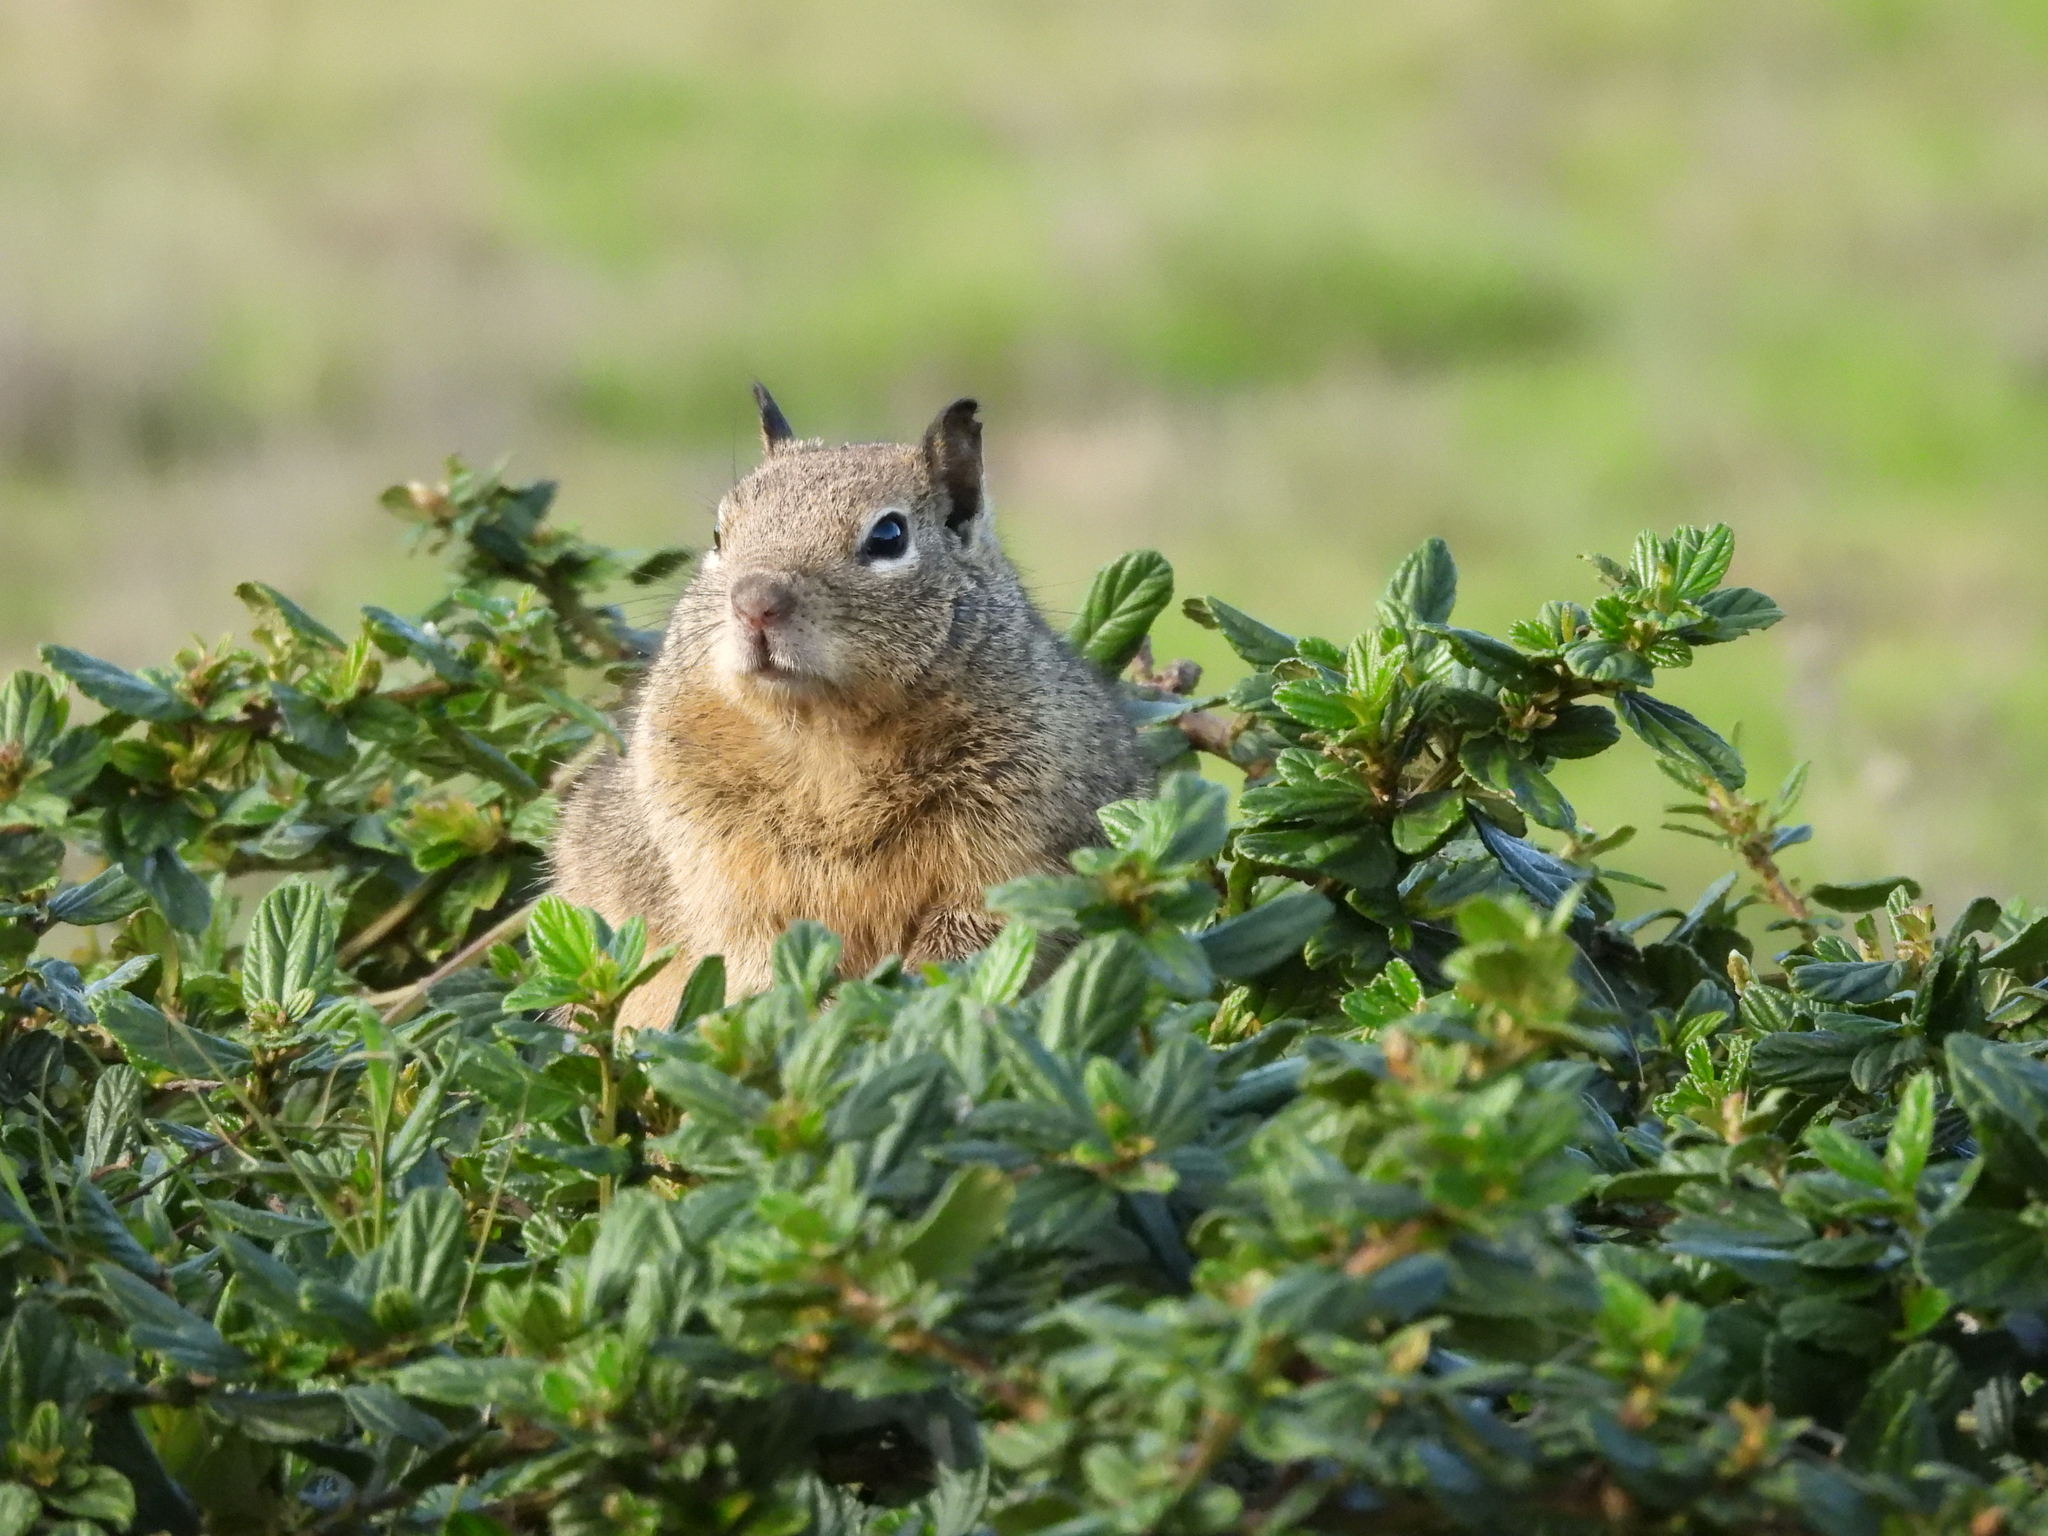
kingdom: Animalia
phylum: Chordata
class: Mammalia
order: Rodentia
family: Sciuridae
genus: Otospermophilus
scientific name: Otospermophilus beecheyi
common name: California ground squirrel
